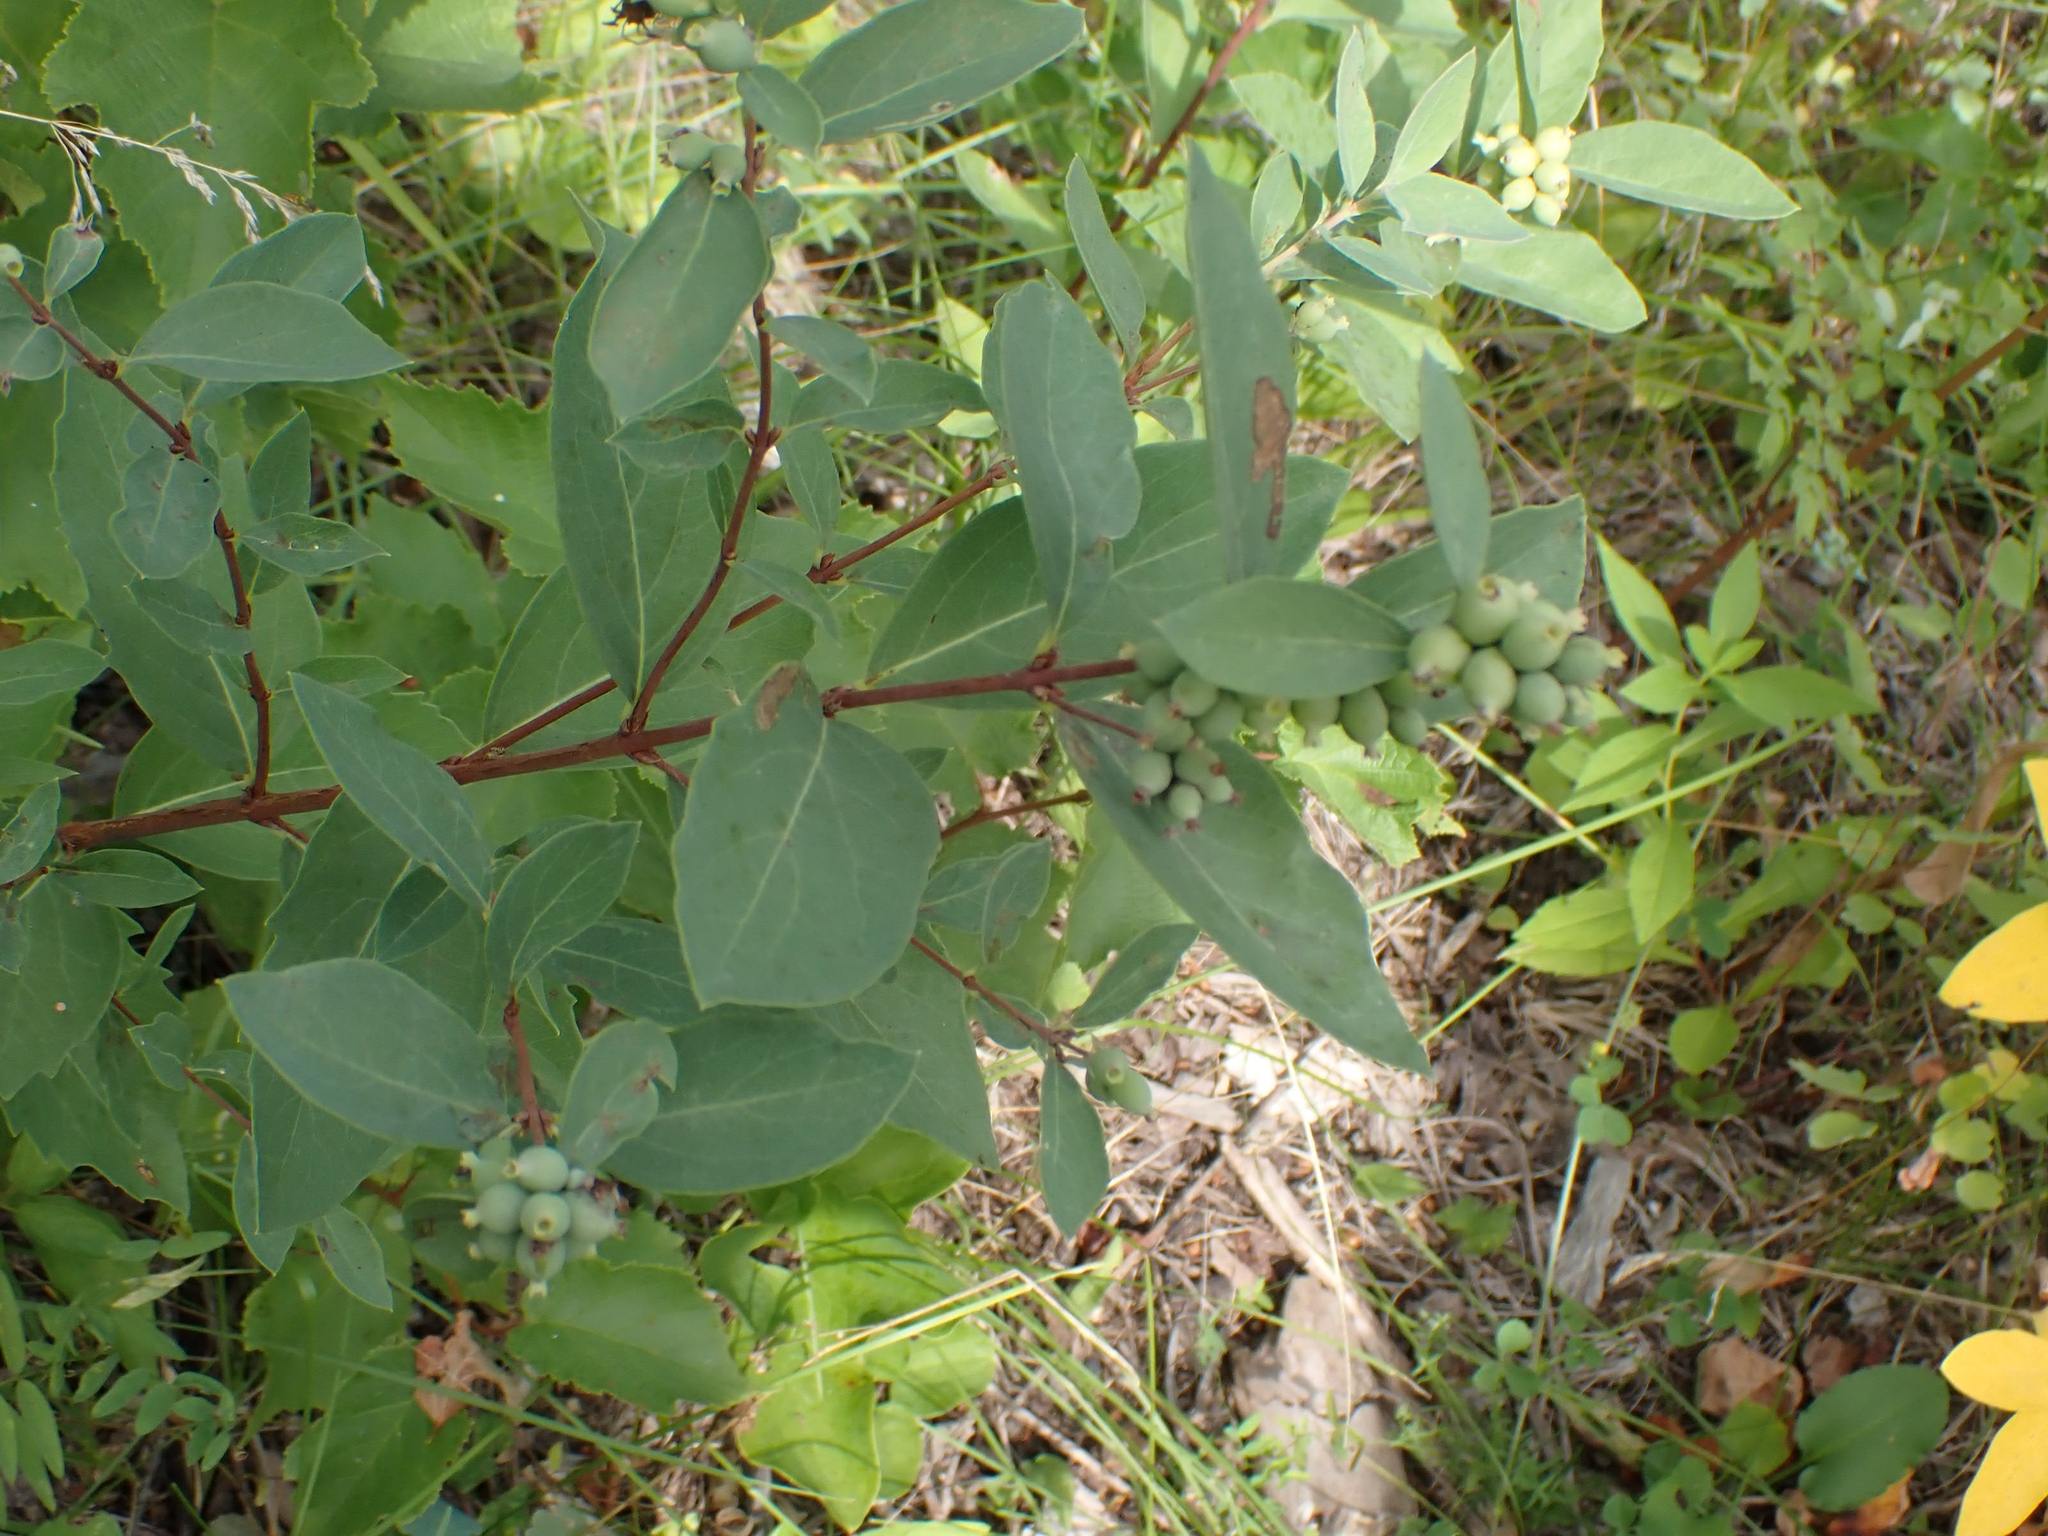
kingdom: Plantae
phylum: Tracheophyta
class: Magnoliopsida
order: Dipsacales
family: Caprifoliaceae
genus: Symphoricarpos
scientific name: Symphoricarpos occidentalis
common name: Wolfberry
